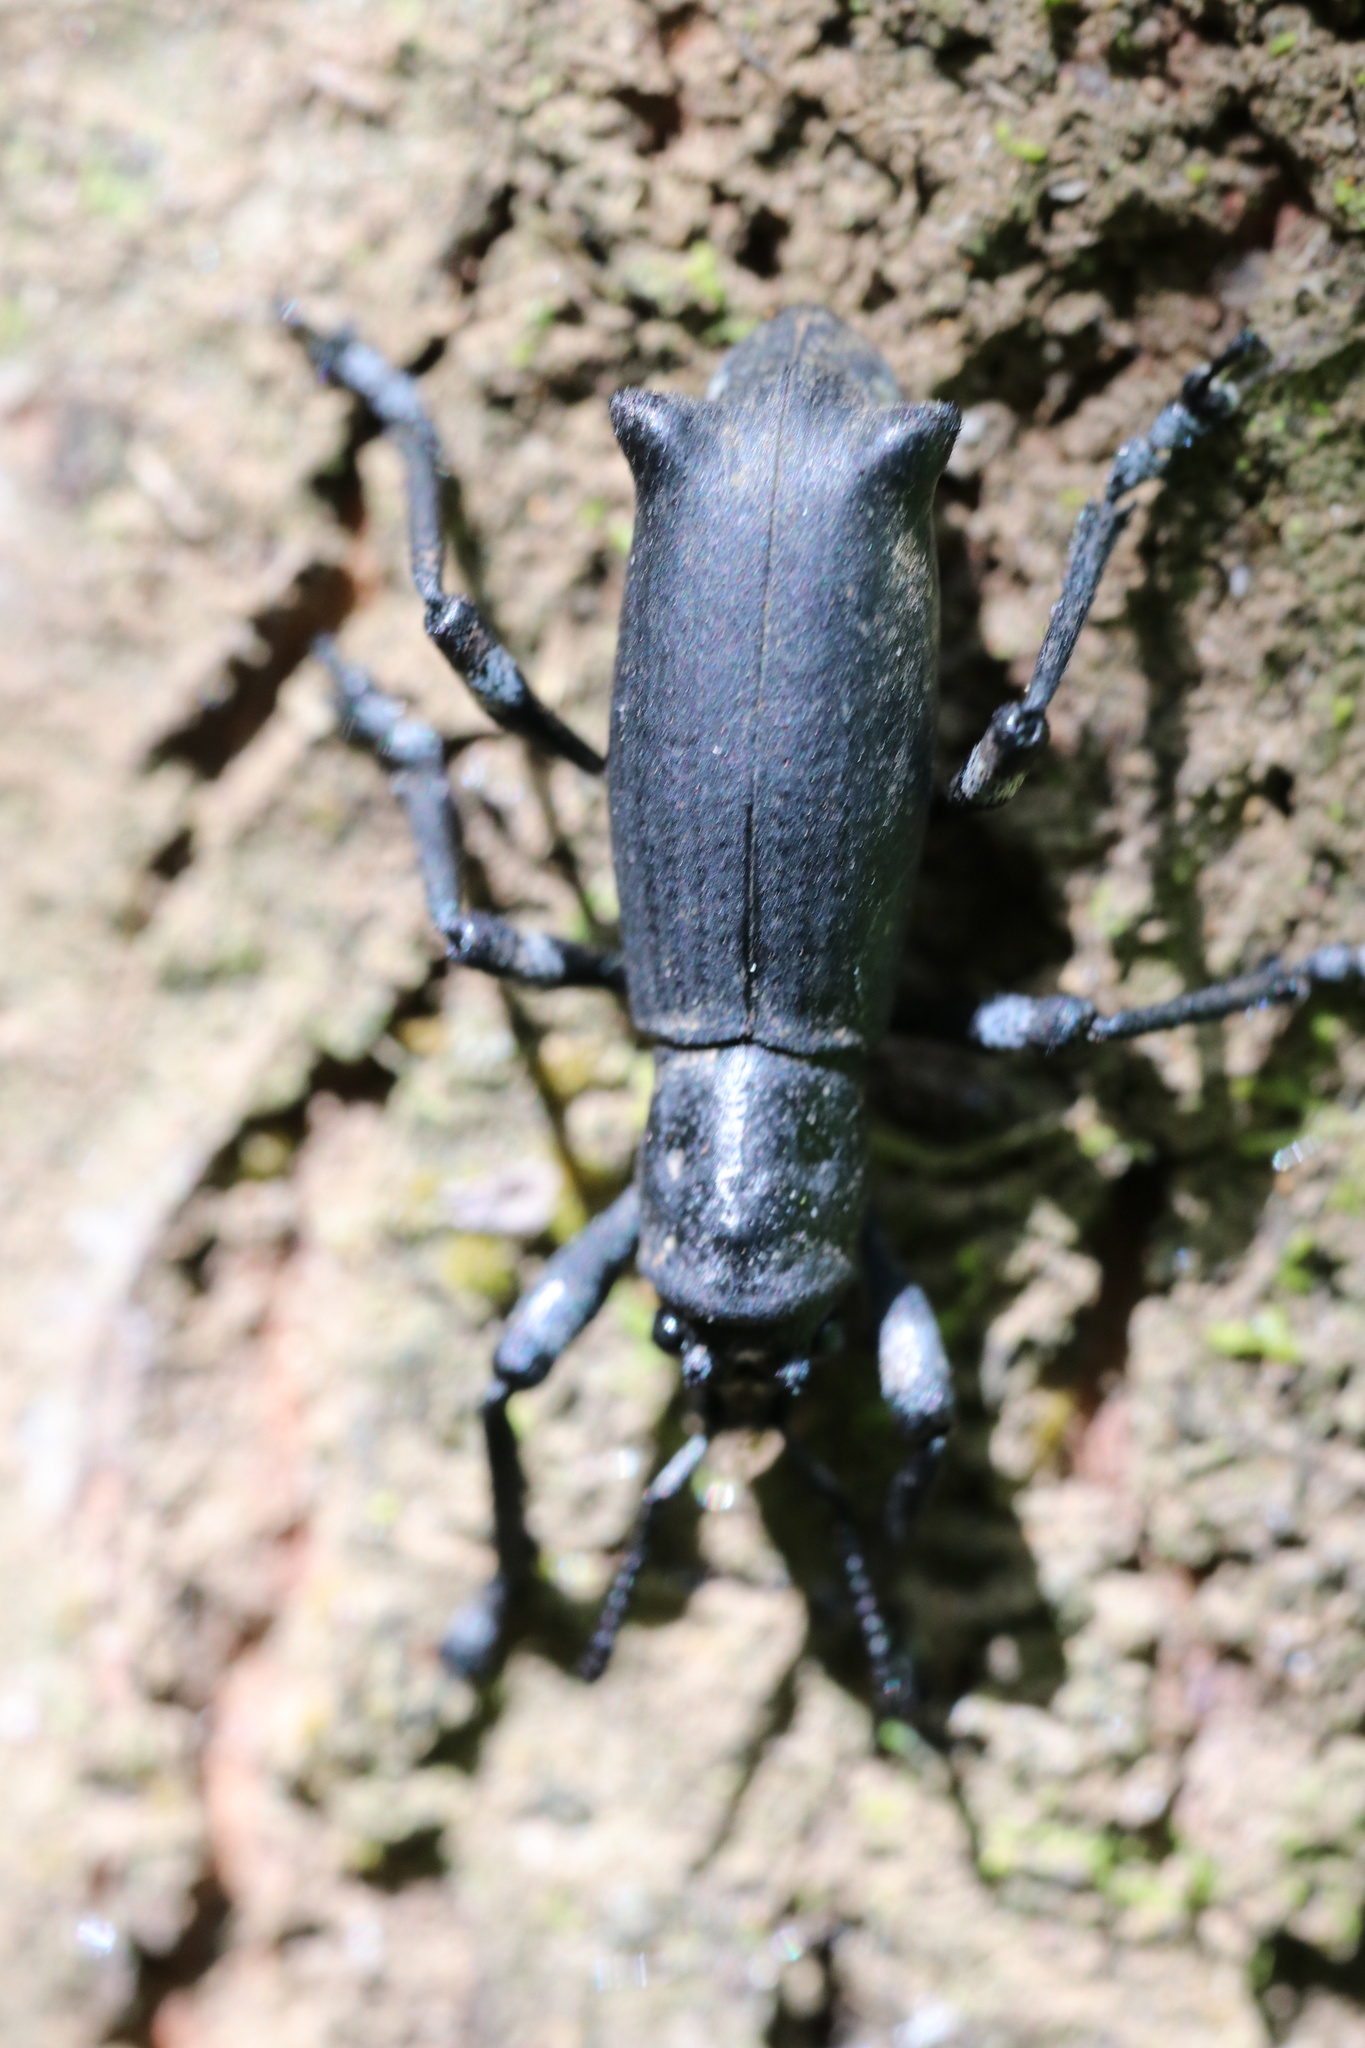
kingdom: Animalia
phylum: Arthropoda
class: Insecta
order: Coleoptera
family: Curculionidae
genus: Aegorhinus
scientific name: Aegorhinus
